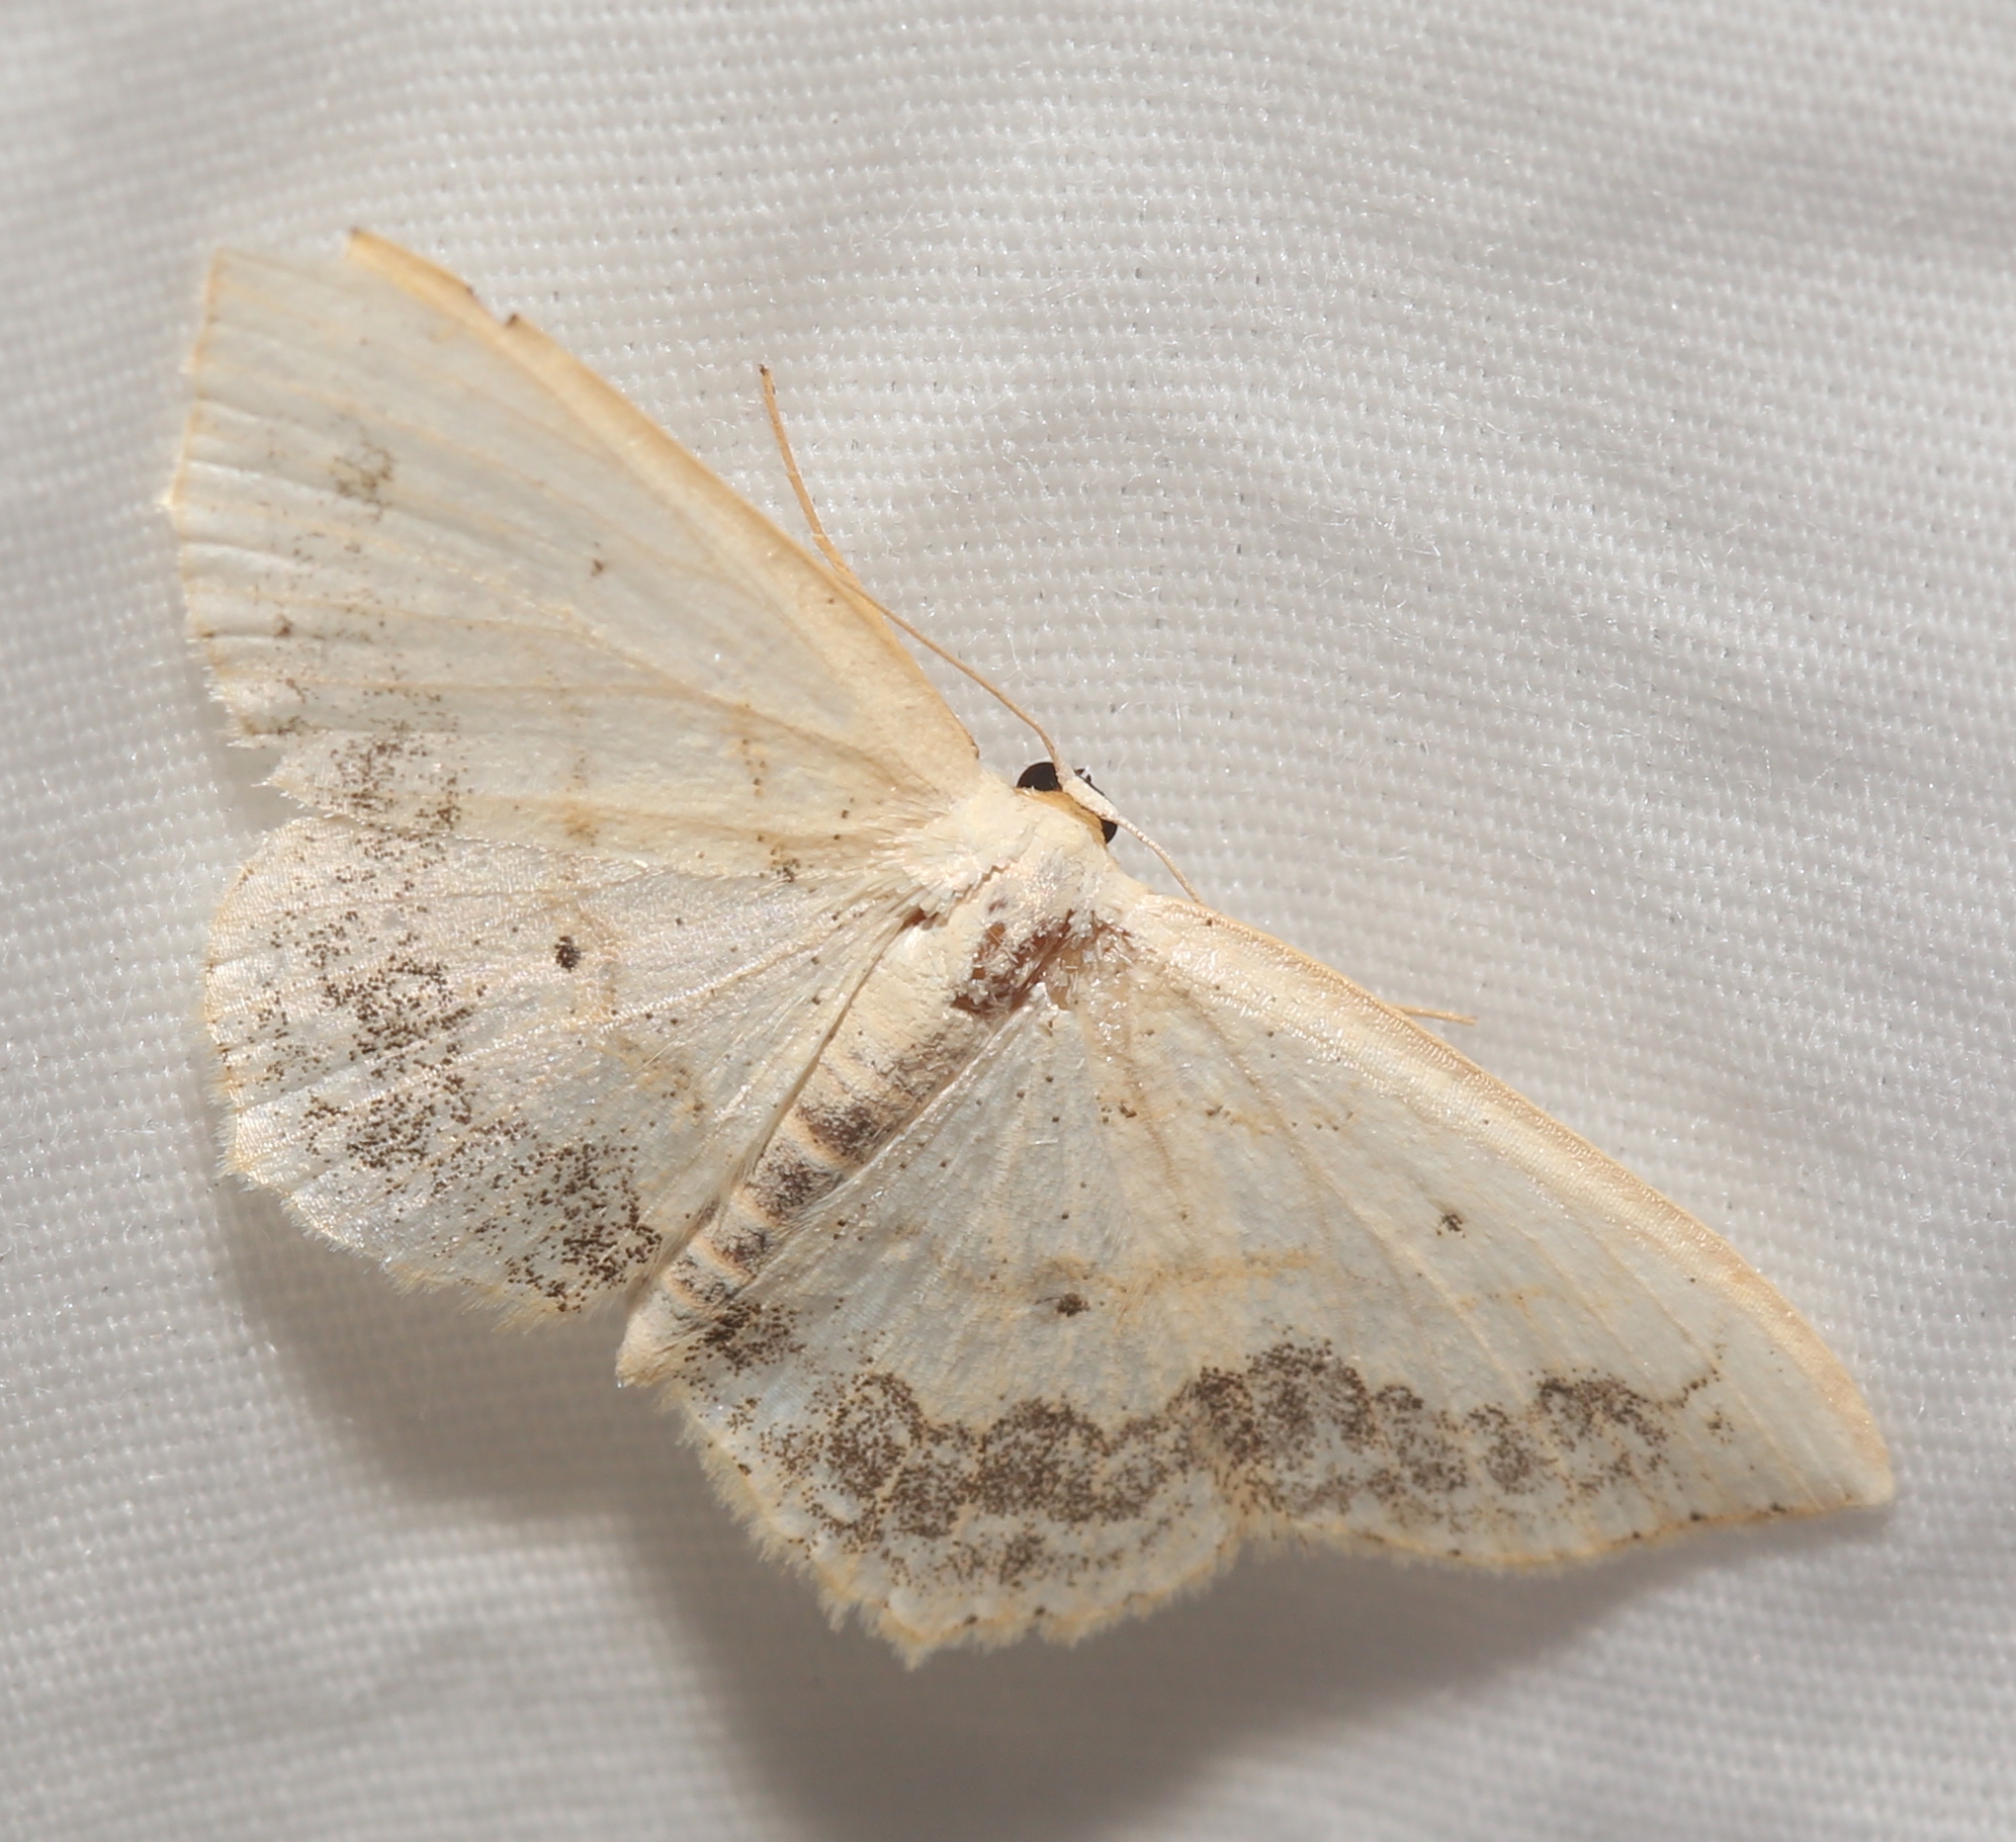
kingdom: Animalia
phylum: Arthropoda
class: Insecta
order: Lepidoptera
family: Geometridae
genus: Scopula
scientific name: Scopula limboundata
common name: Large lace border
